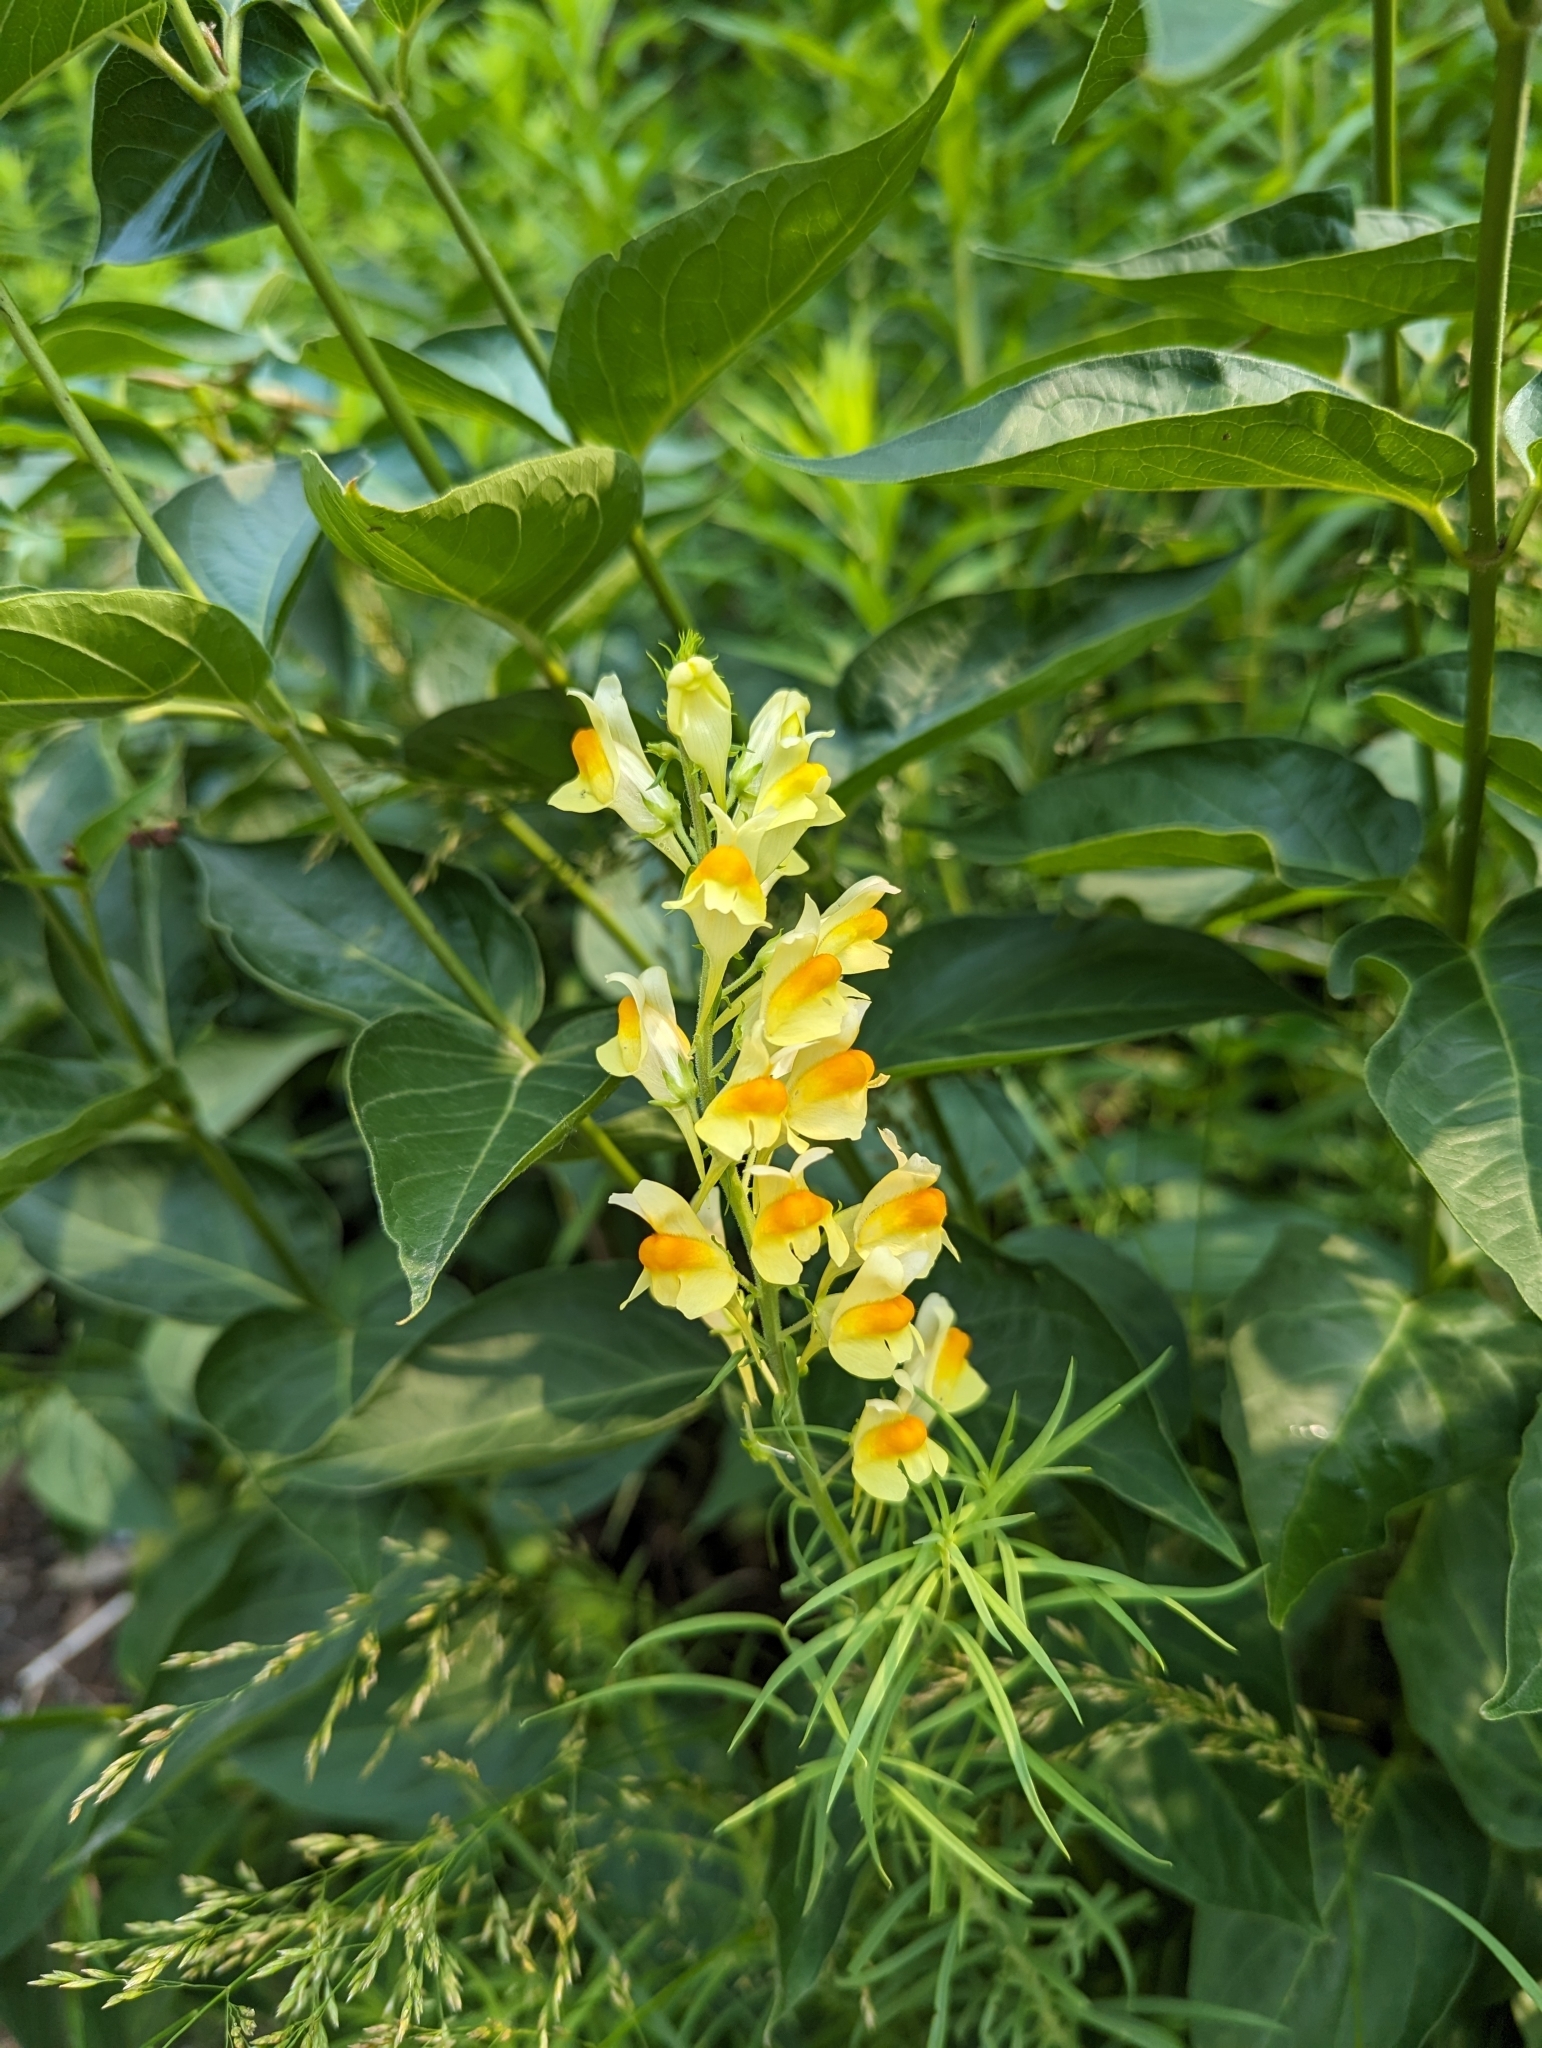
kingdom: Plantae
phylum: Tracheophyta
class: Magnoliopsida
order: Lamiales
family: Plantaginaceae
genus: Linaria
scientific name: Linaria vulgaris
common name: Butter and eggs
